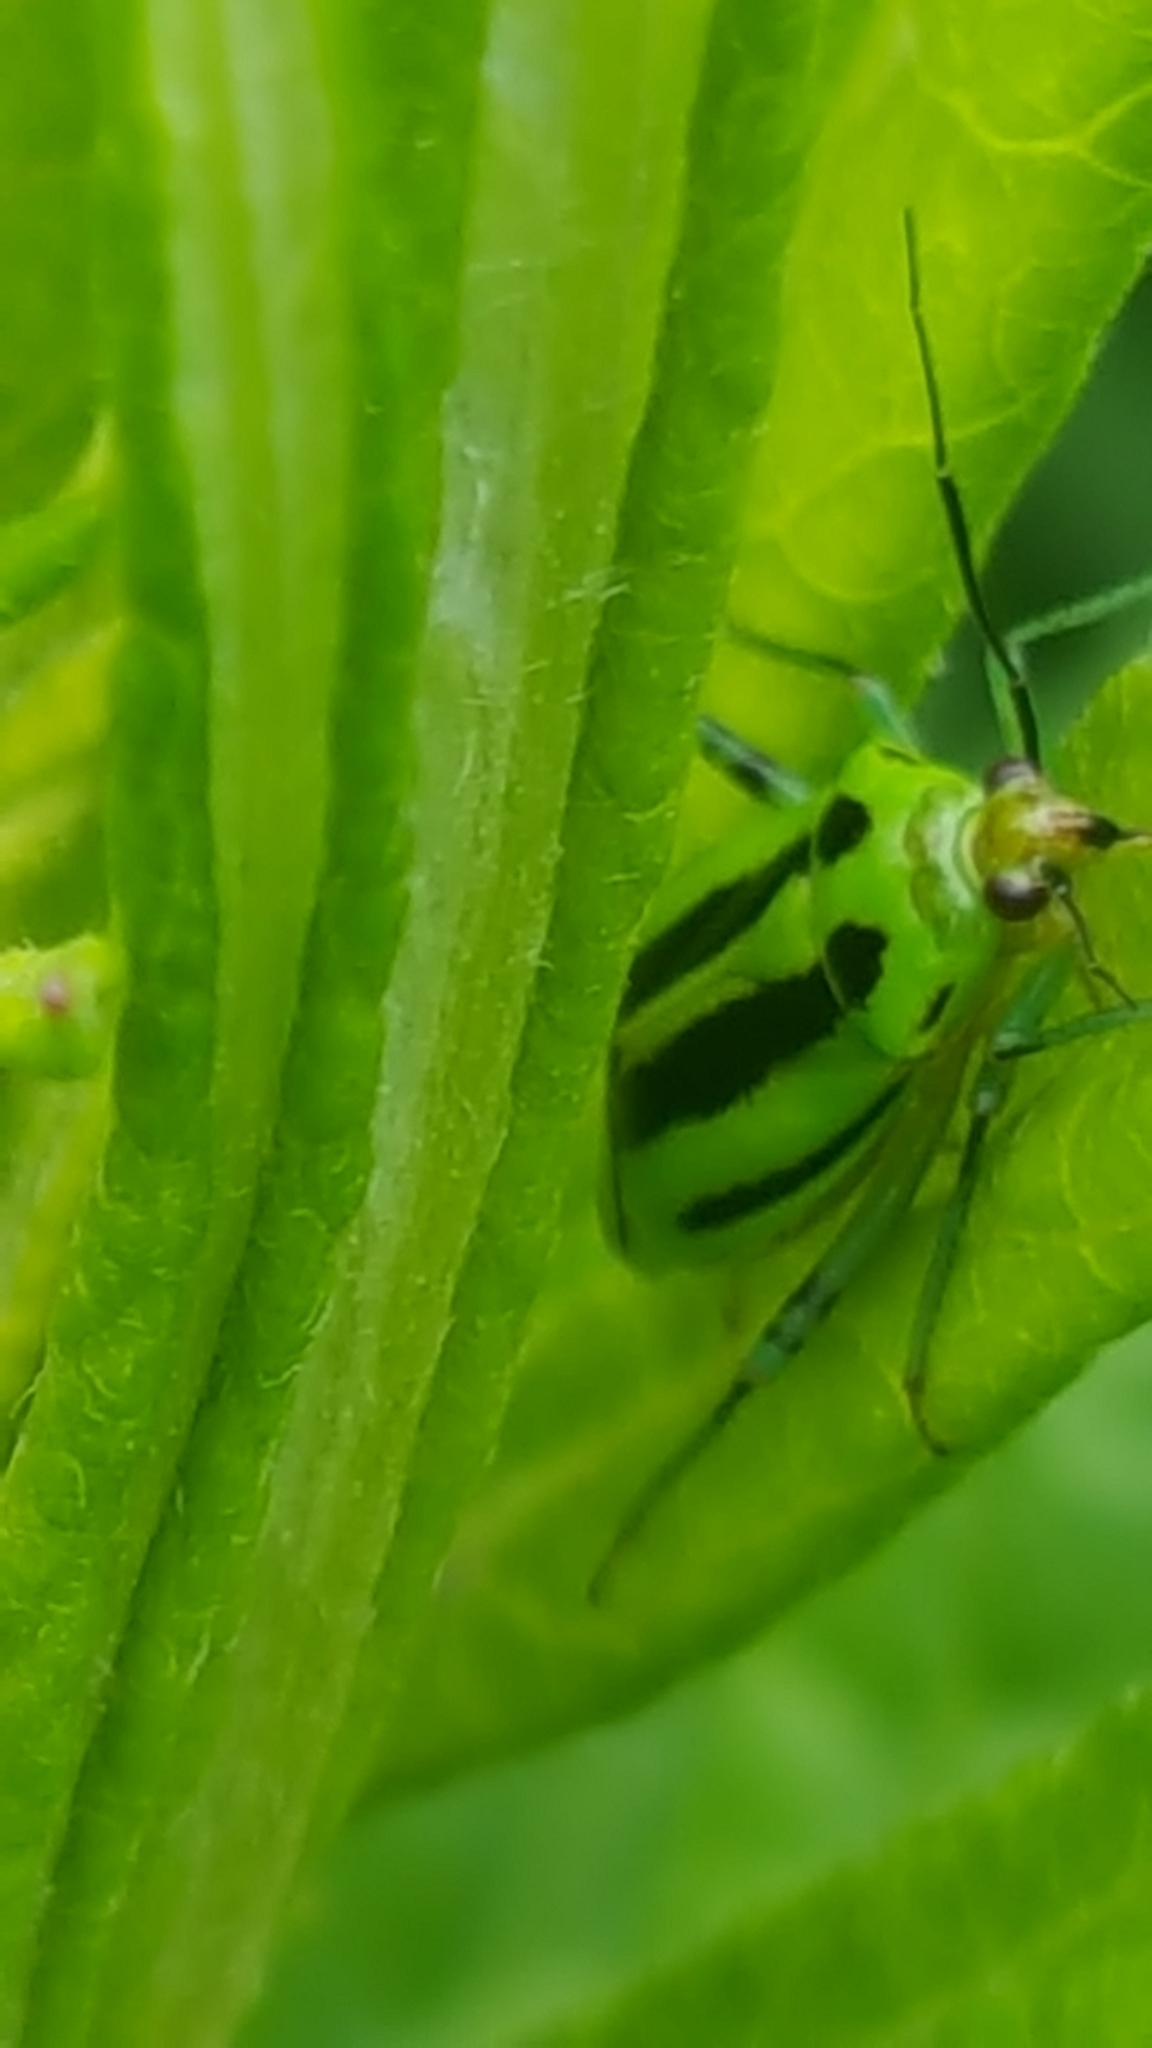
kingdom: Animalia
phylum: Arthropoda
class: Insecta
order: Hemiptera
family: Miridae
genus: Poecilocapsus
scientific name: Poecilocapsus lineatus
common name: Four-lined plant bug
